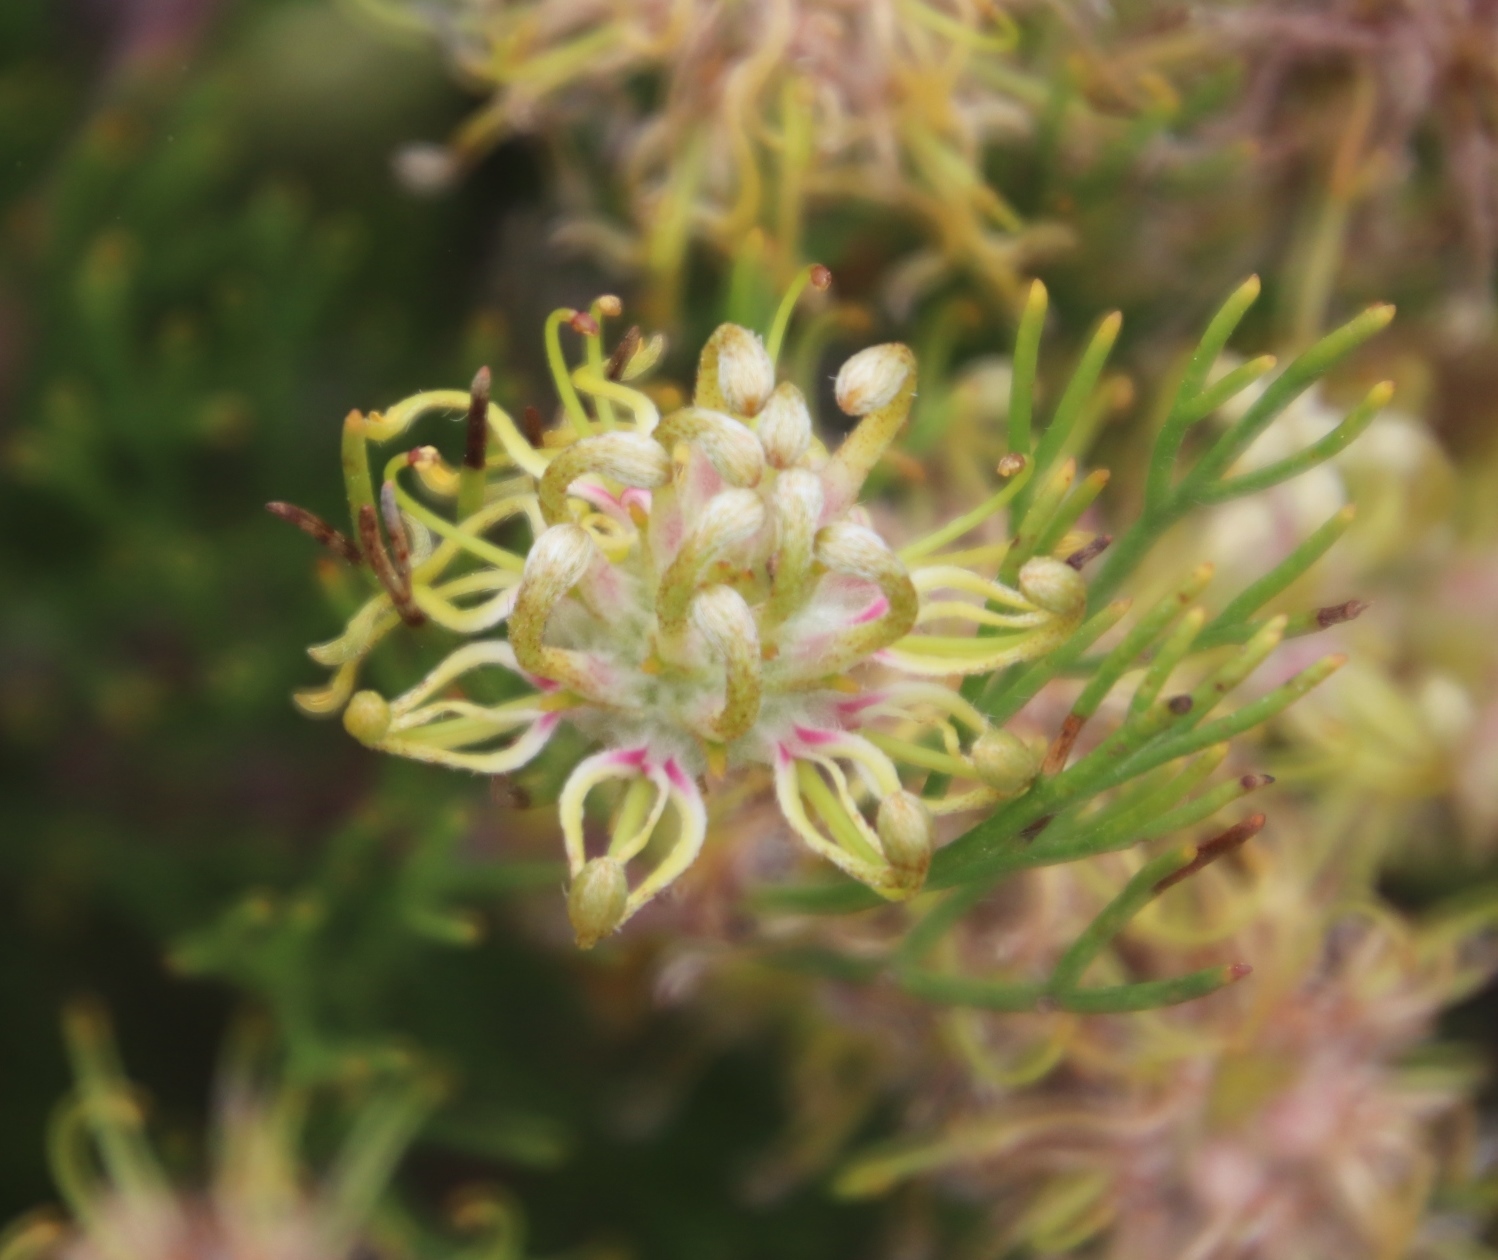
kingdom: Plantae
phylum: Tracheophyta
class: Magnoliopsida
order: Proteales
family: Proteaceae
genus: Serruria
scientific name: Serruria
